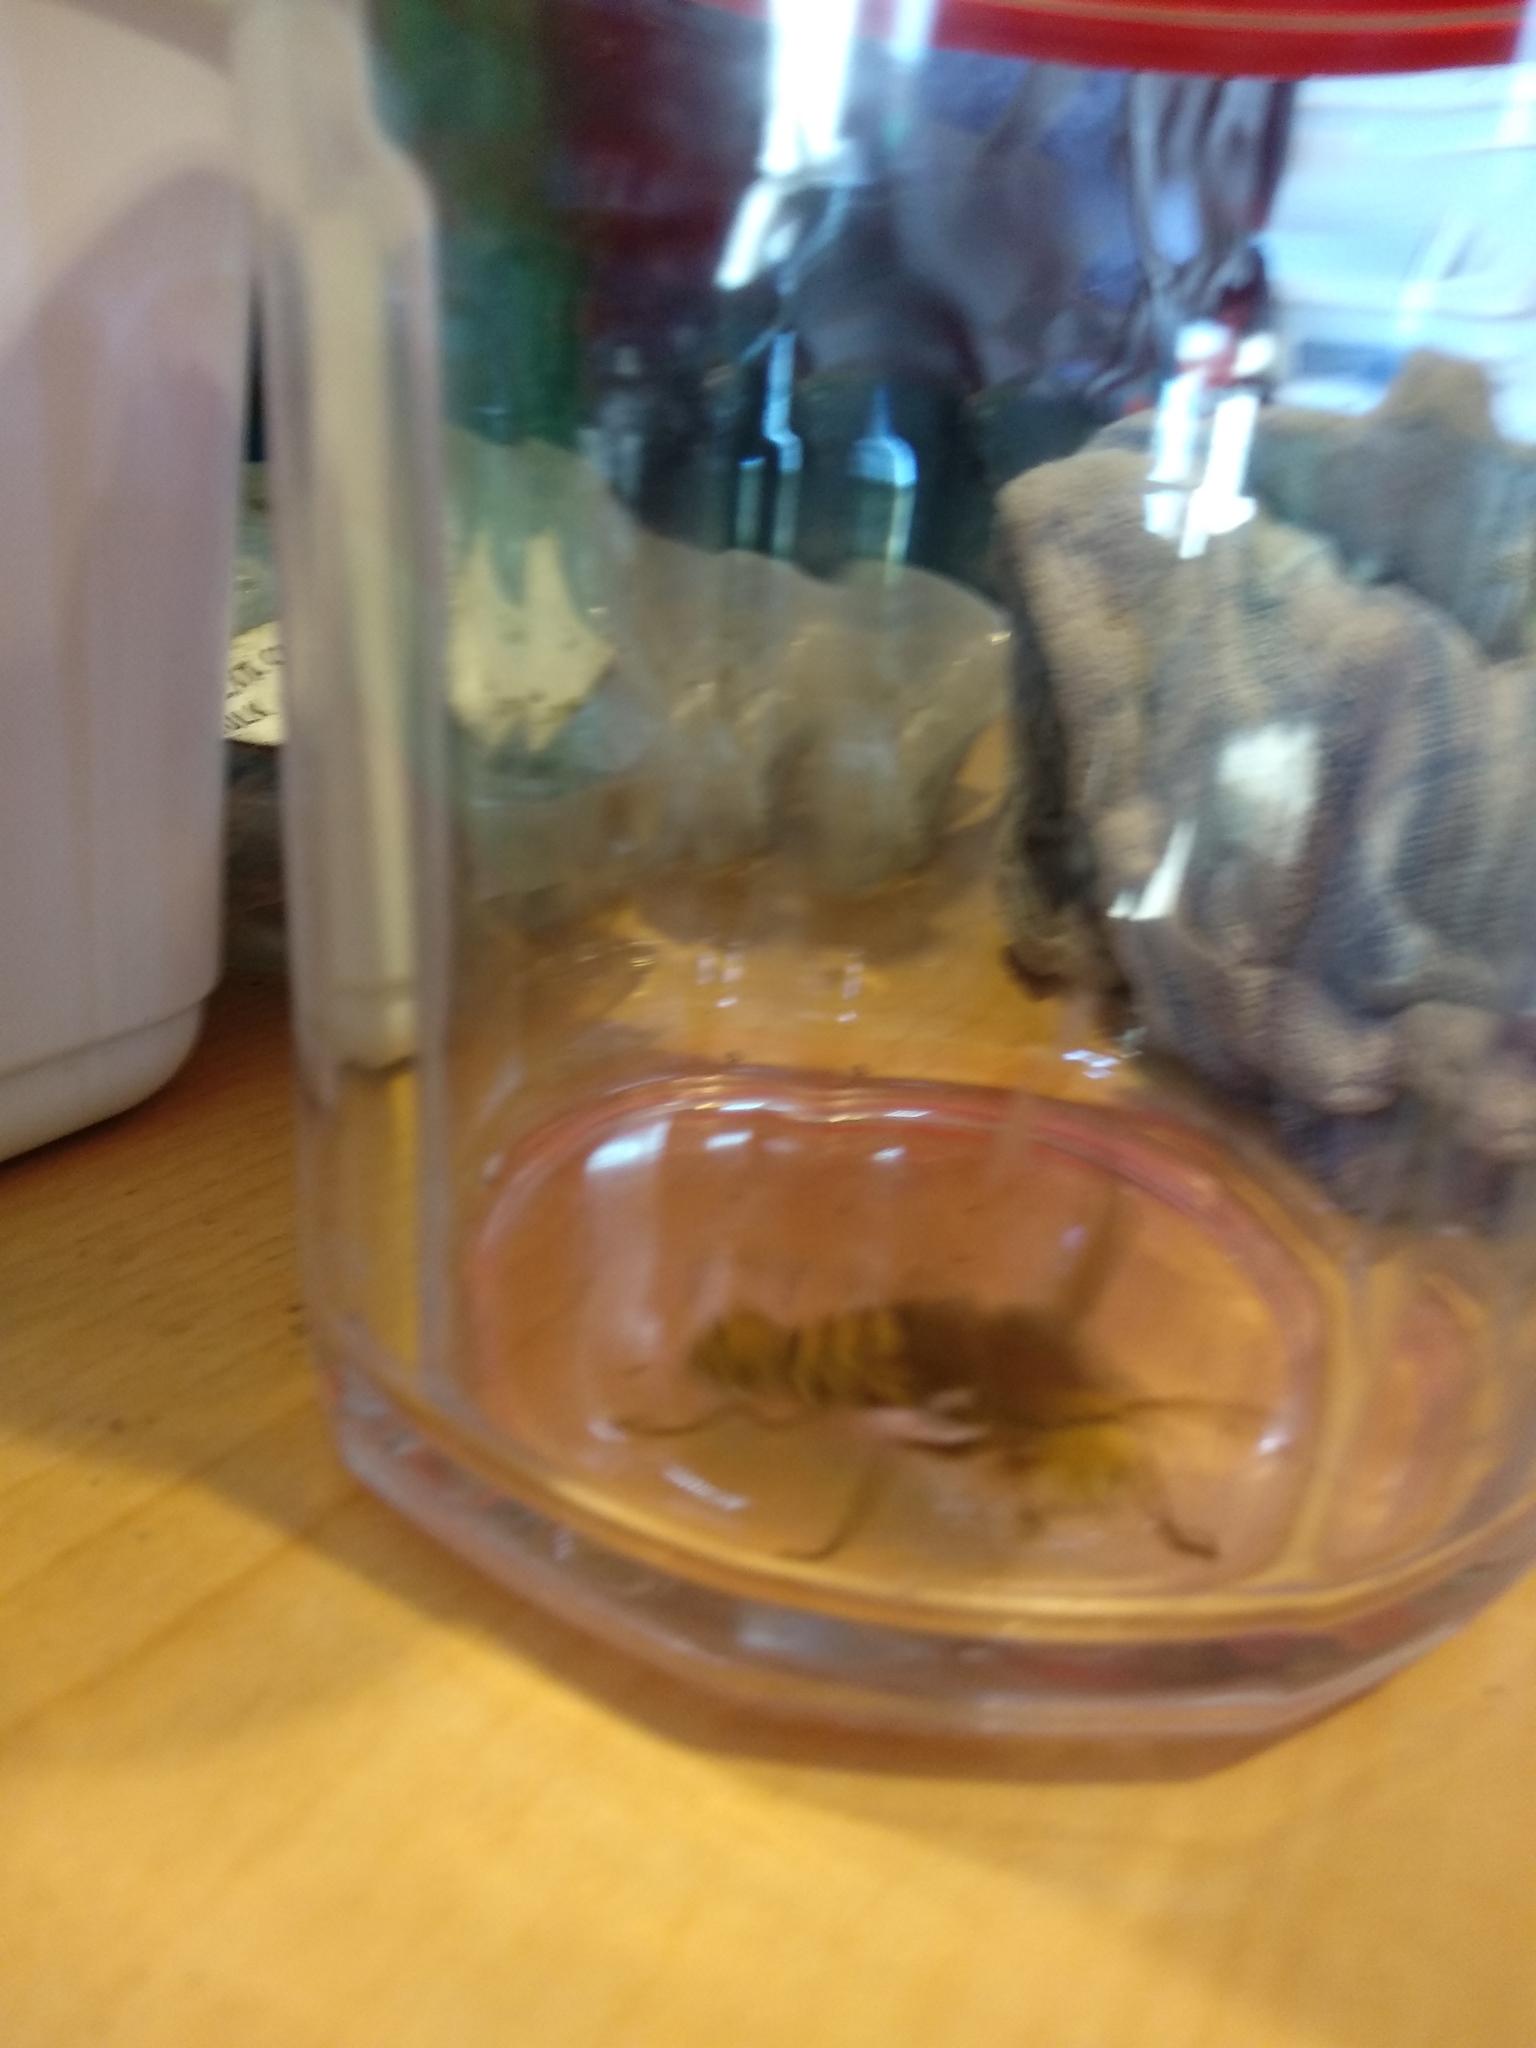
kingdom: Animalia
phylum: Arthropoda
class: Insecta
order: Hymenoptera
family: Vespidae
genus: Vespa
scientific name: Vespa crabro
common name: Hornet
